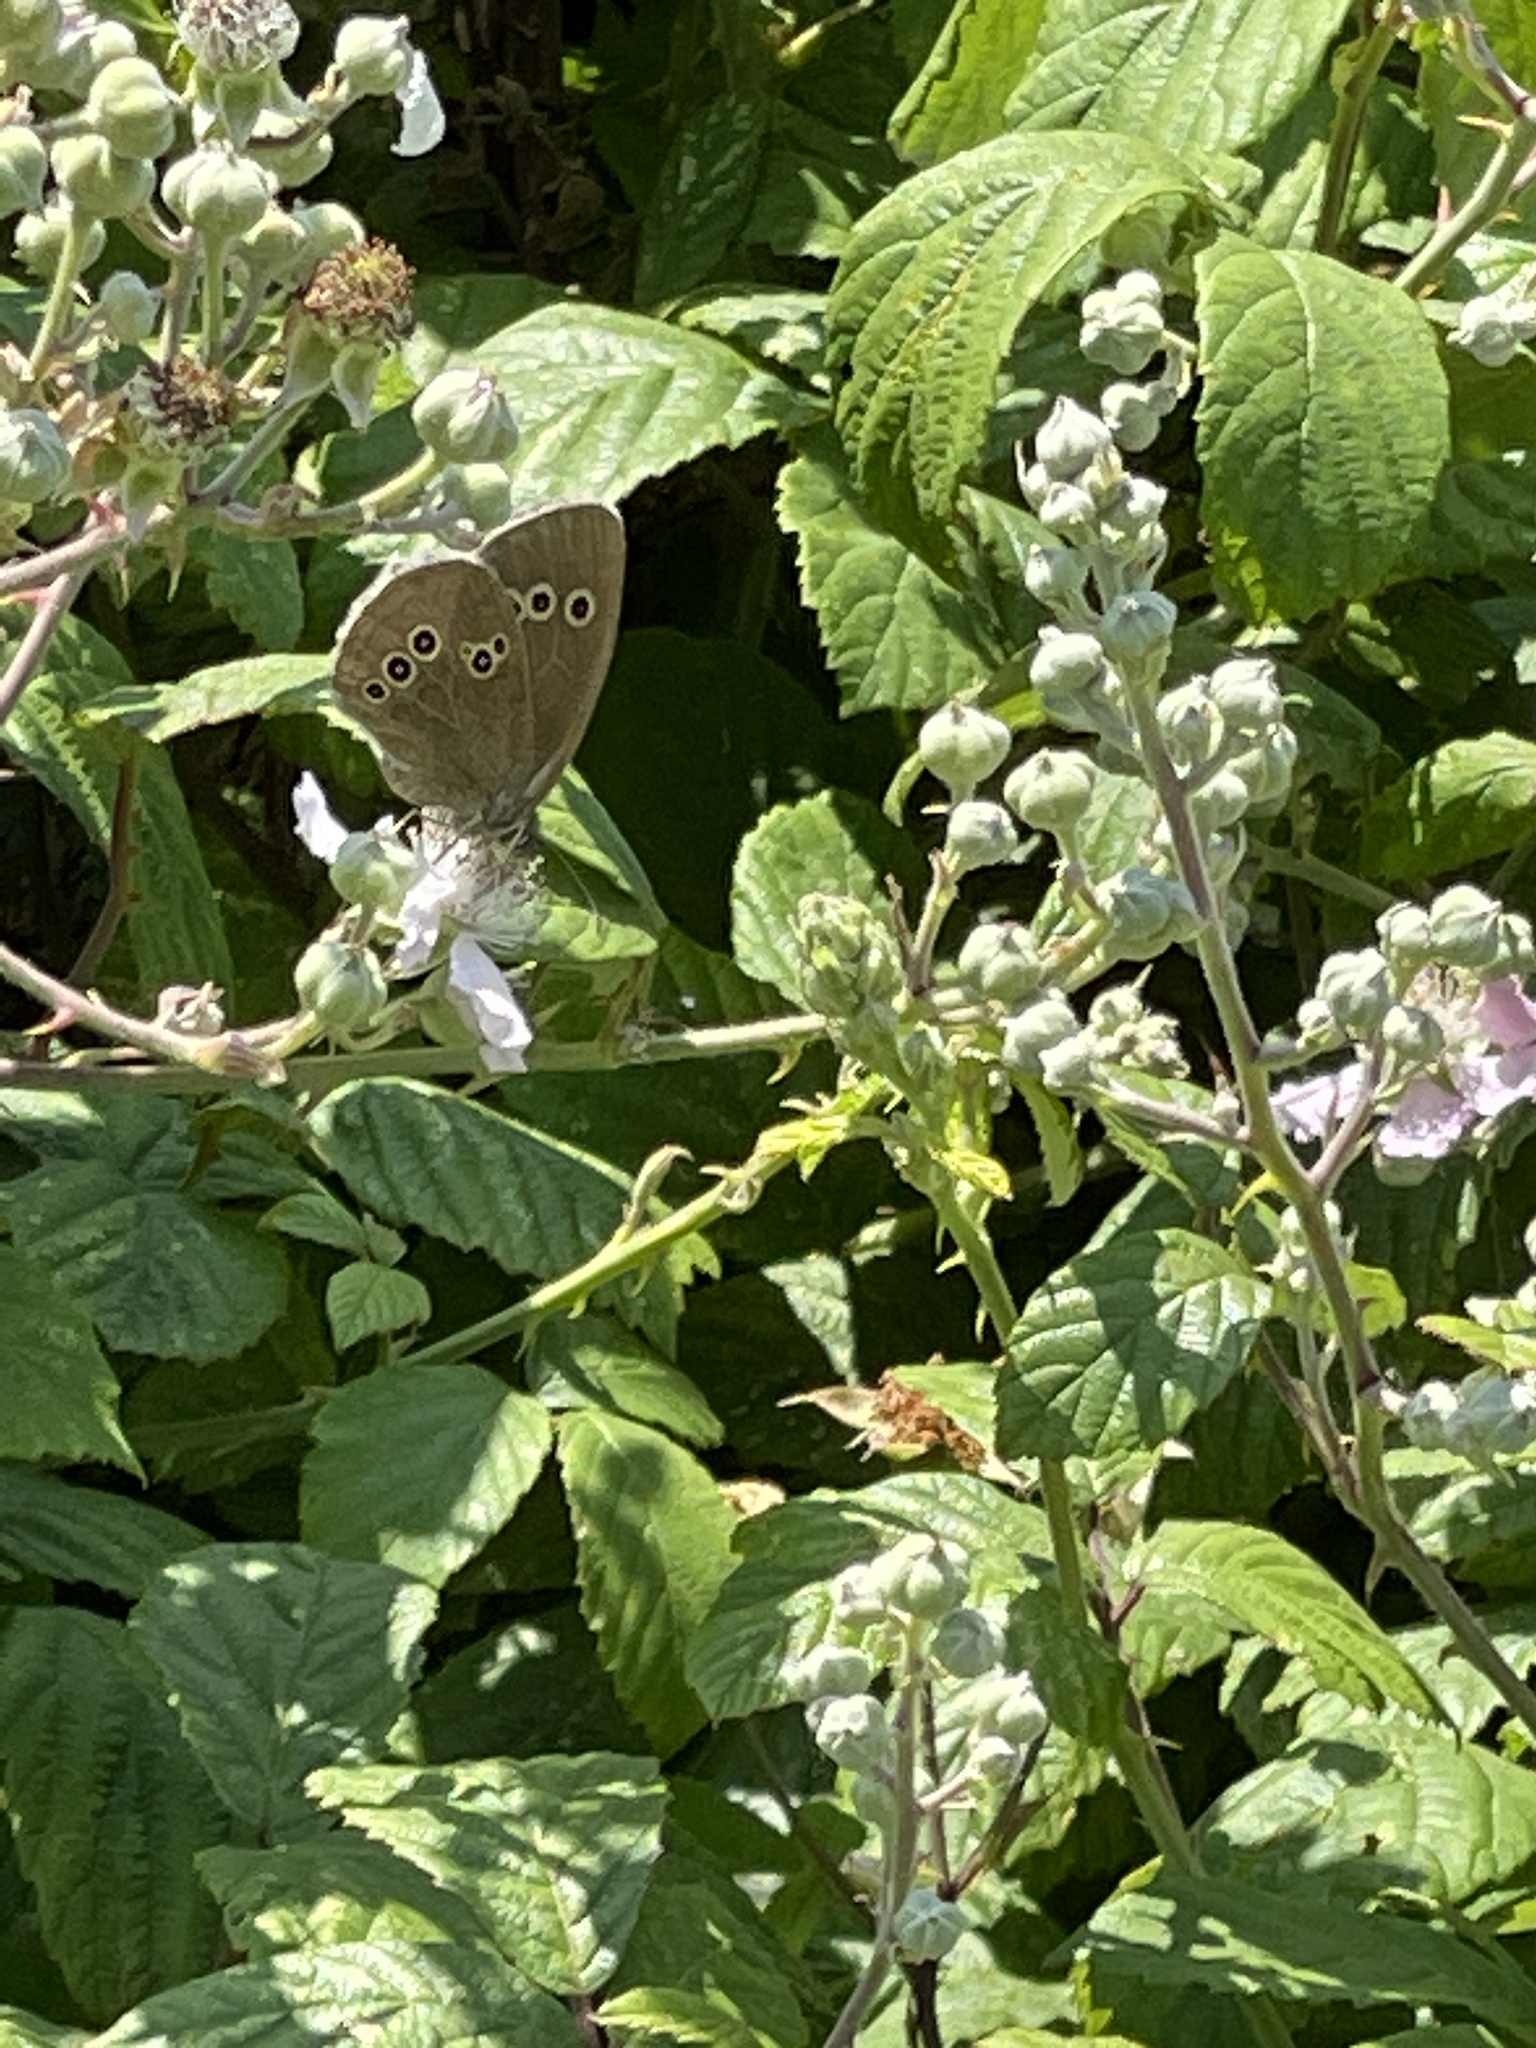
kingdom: Animalia
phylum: Arthropoda
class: Insecta
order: Lepidoptera
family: Nymphalidae
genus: Aphantopus
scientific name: Aphantopus hyperantus
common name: Ringlet
